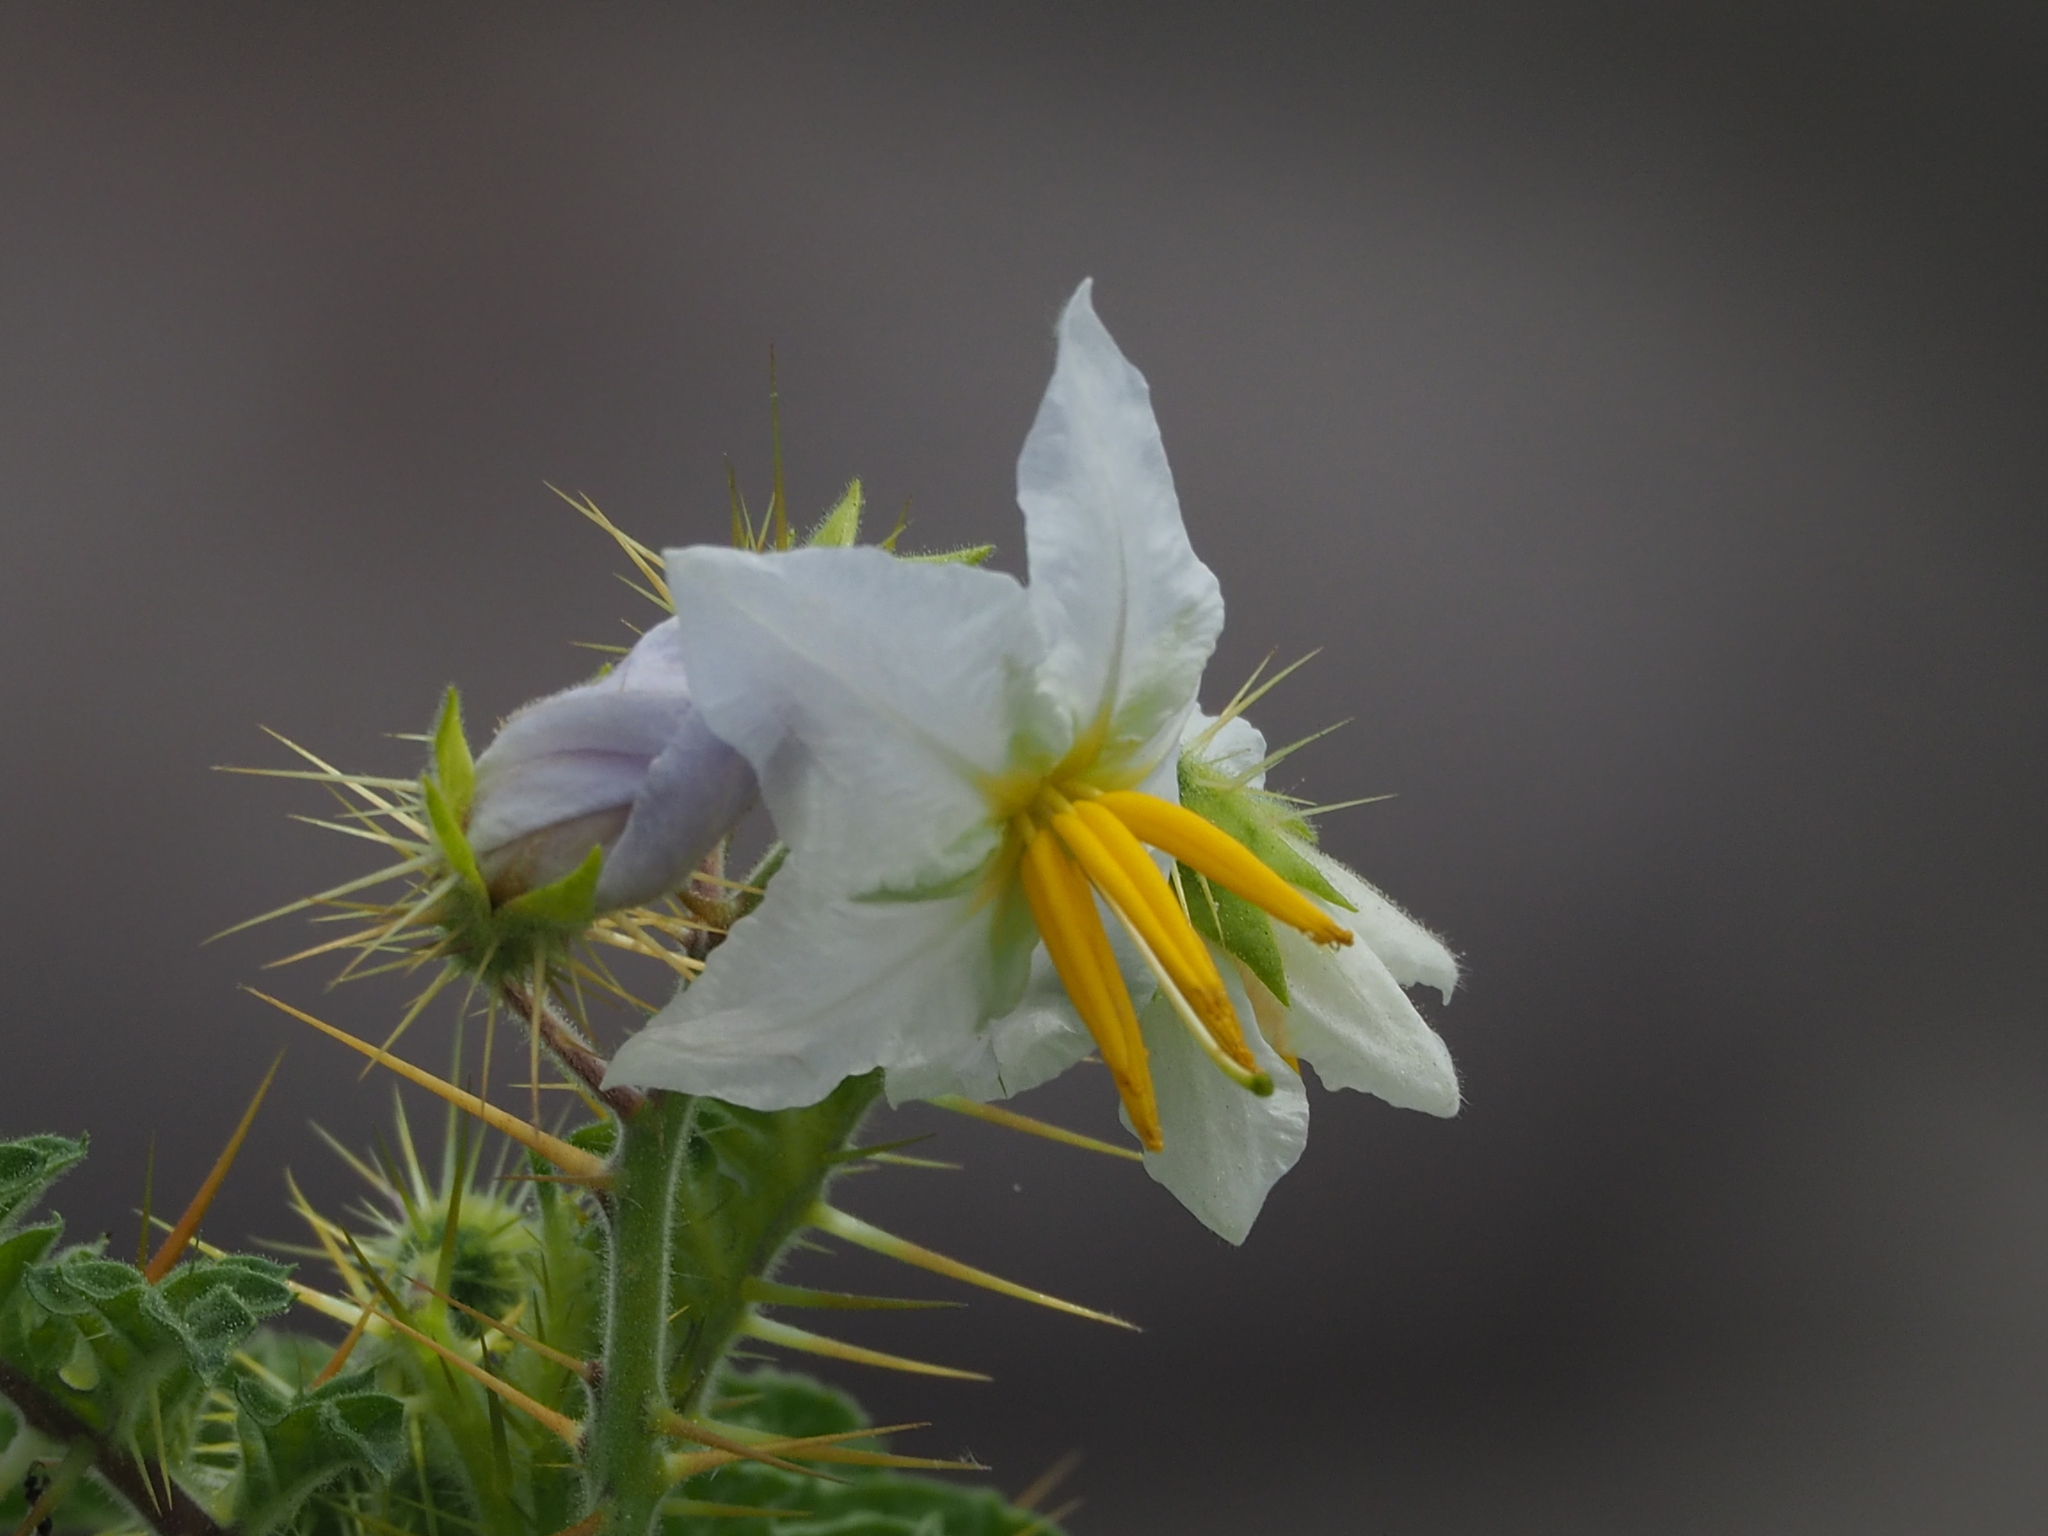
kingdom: Plantae
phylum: Tracheophyta
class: Magnoliopsida
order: Solanales
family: Solanaceae
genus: Solanum
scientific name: Solanum sisymbriifolium
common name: Red buffalo-bur
